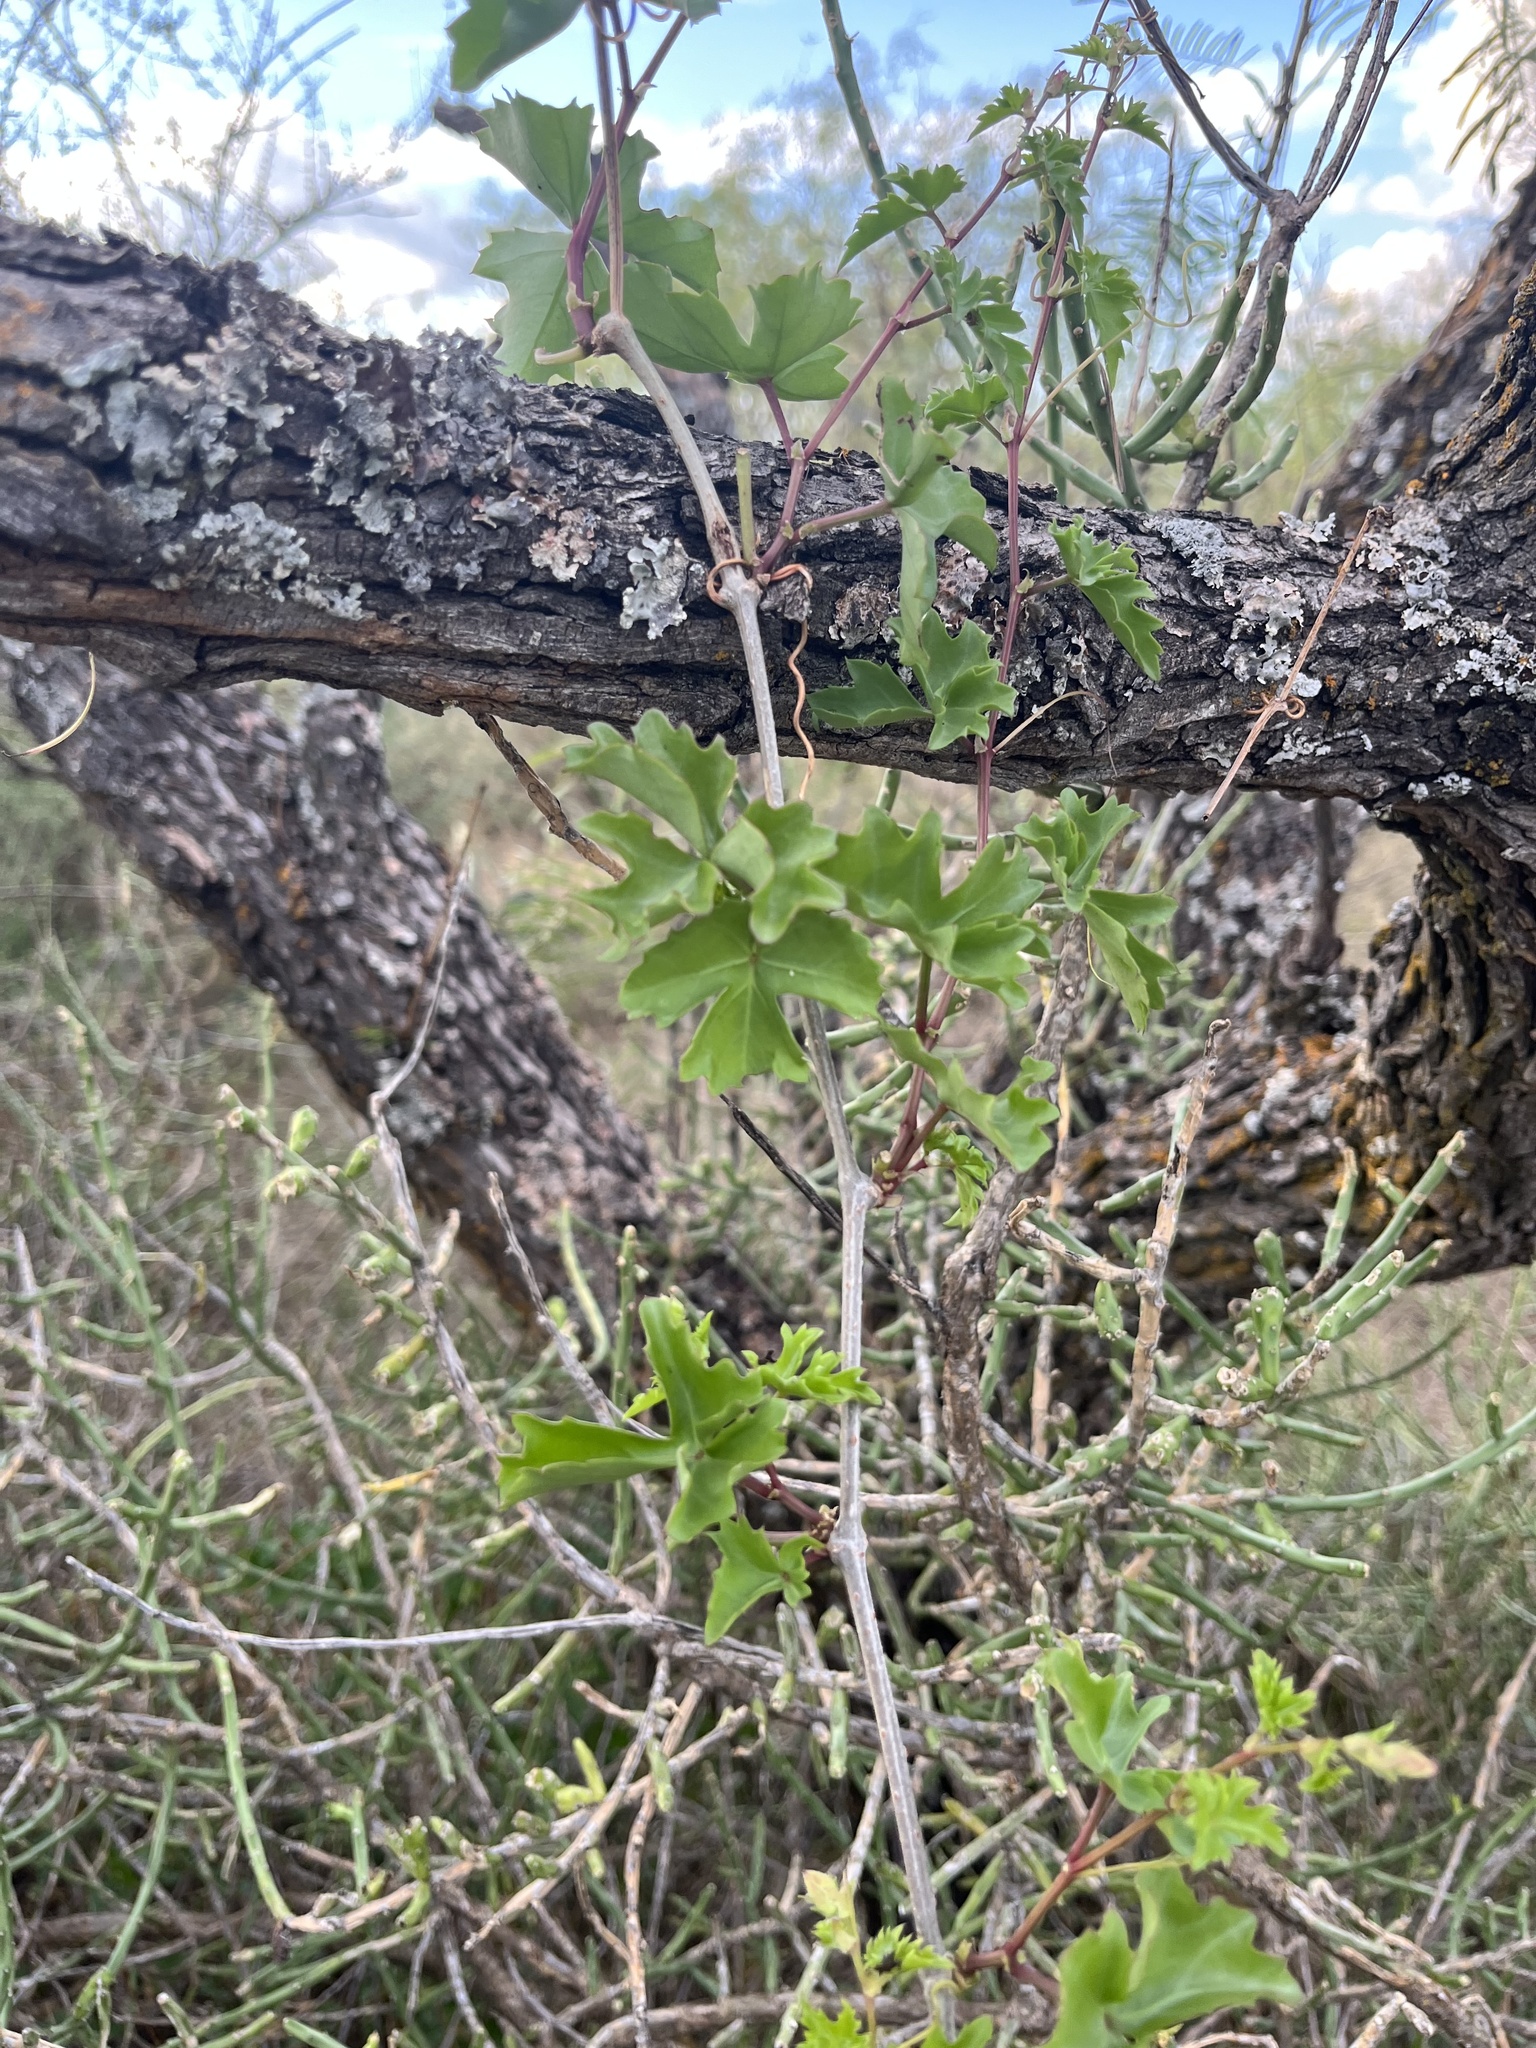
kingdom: Plantae
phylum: Tracheophyta
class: Magnoliopsida
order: Vitales
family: Vitaceae
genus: Cissus
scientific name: Cissus trifoliata
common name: Vine-sorrel
